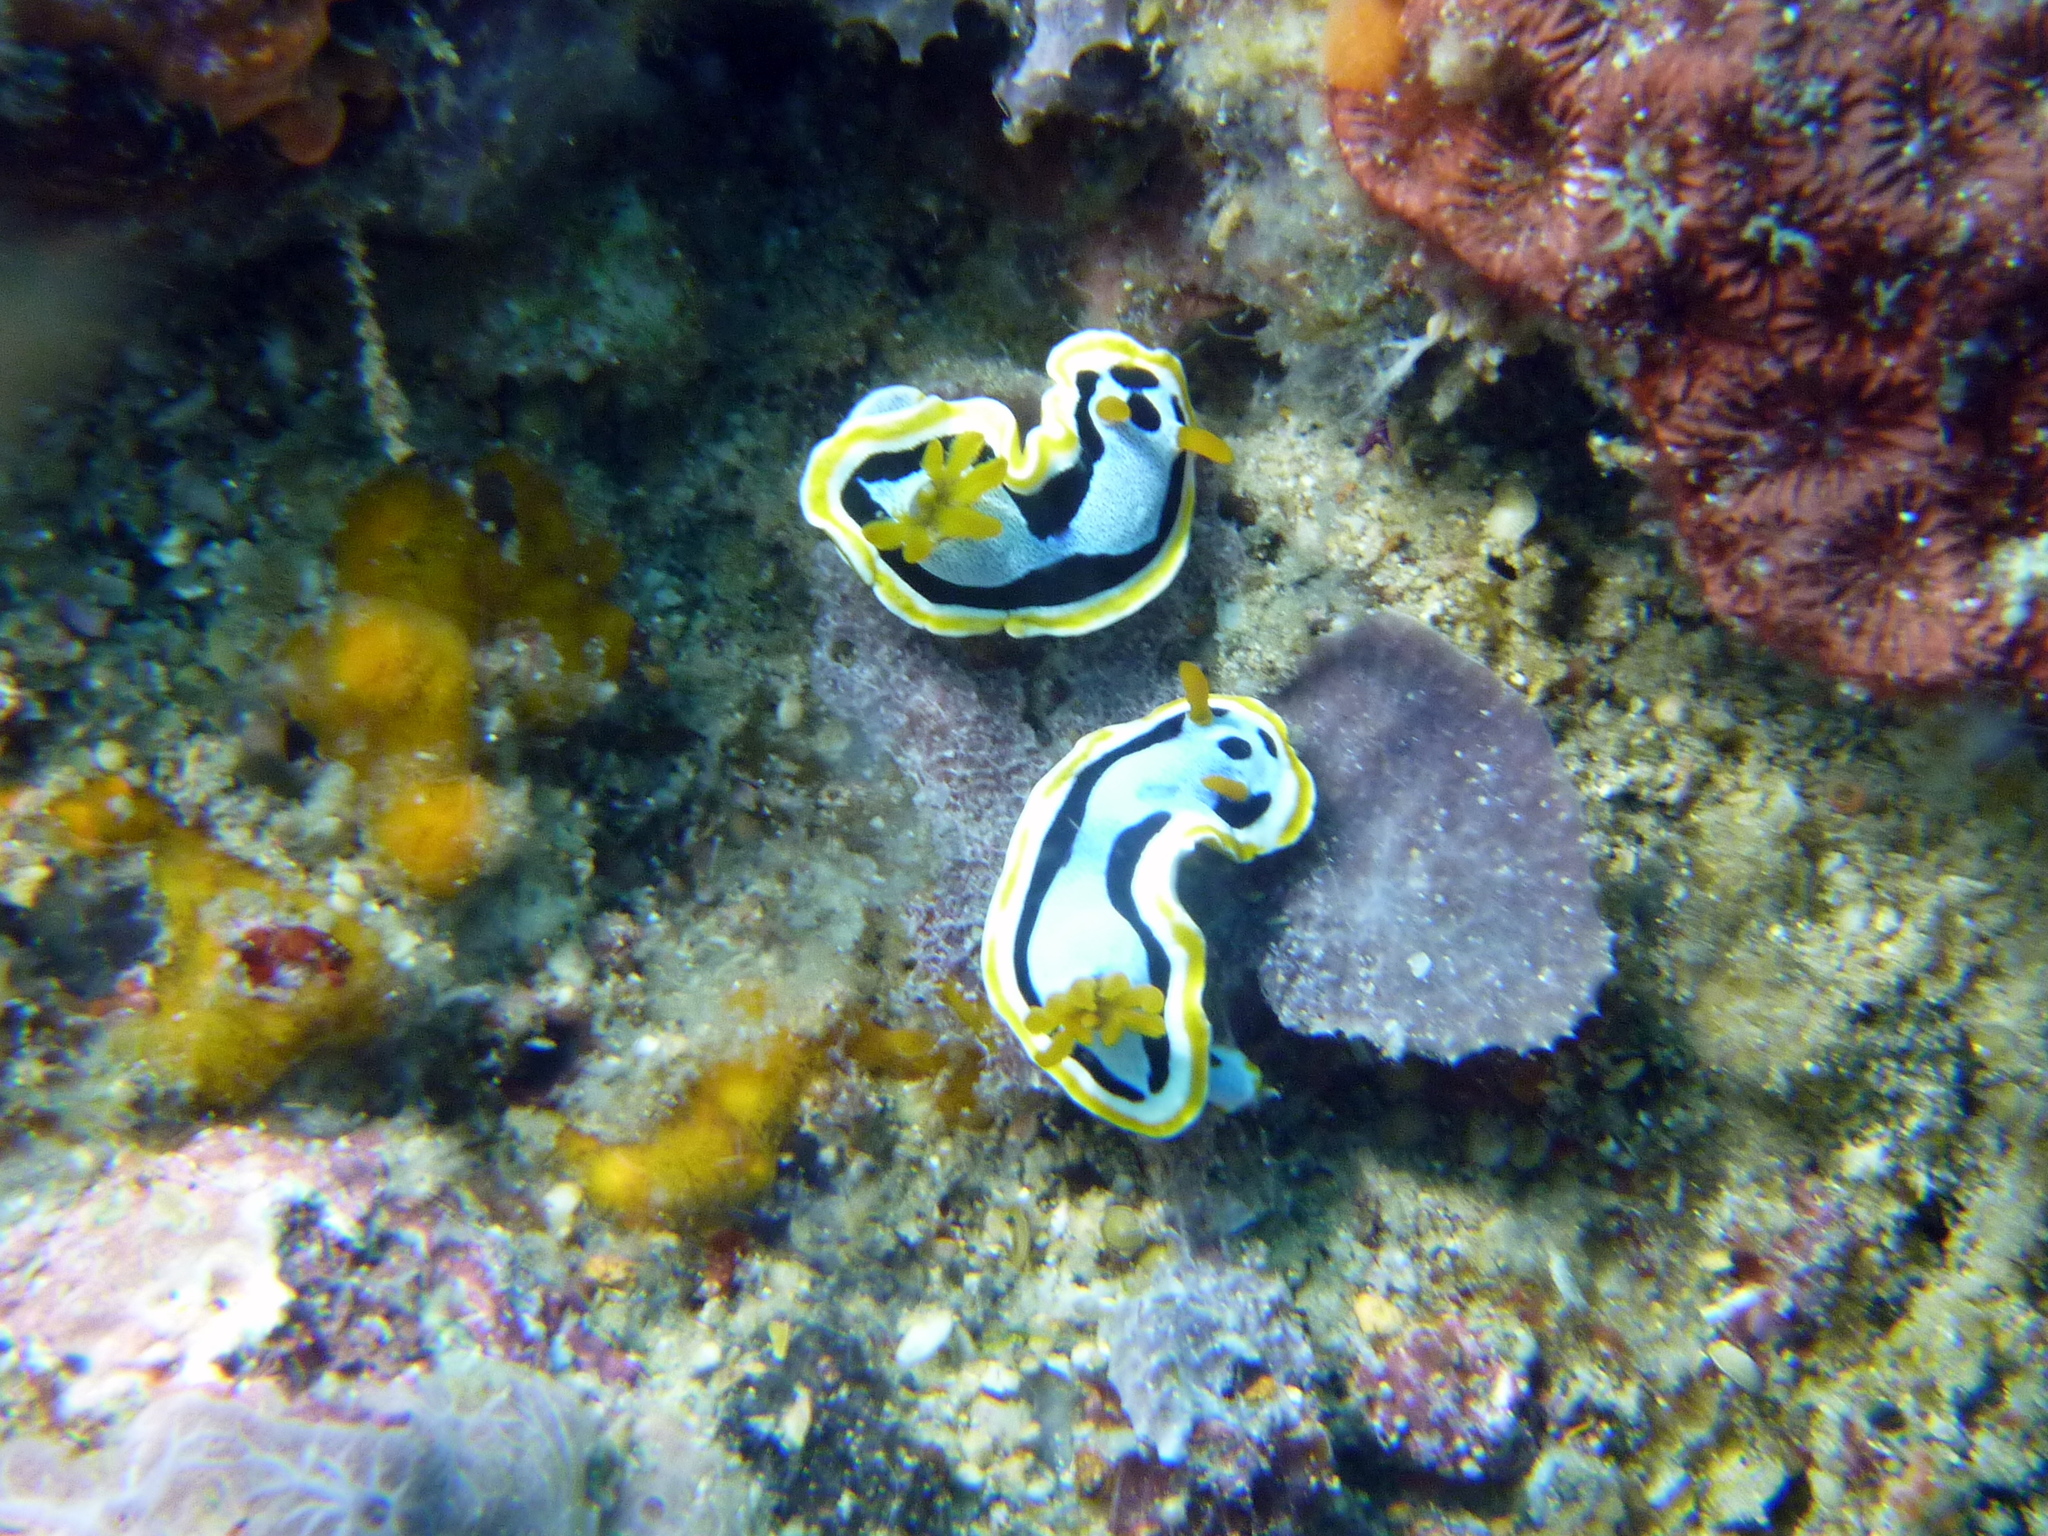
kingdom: Animalia
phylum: Mollusca
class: Gastropoda
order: Nudibranchia
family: Chromodorididae
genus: Chromodoris
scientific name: Chromodoris annae
